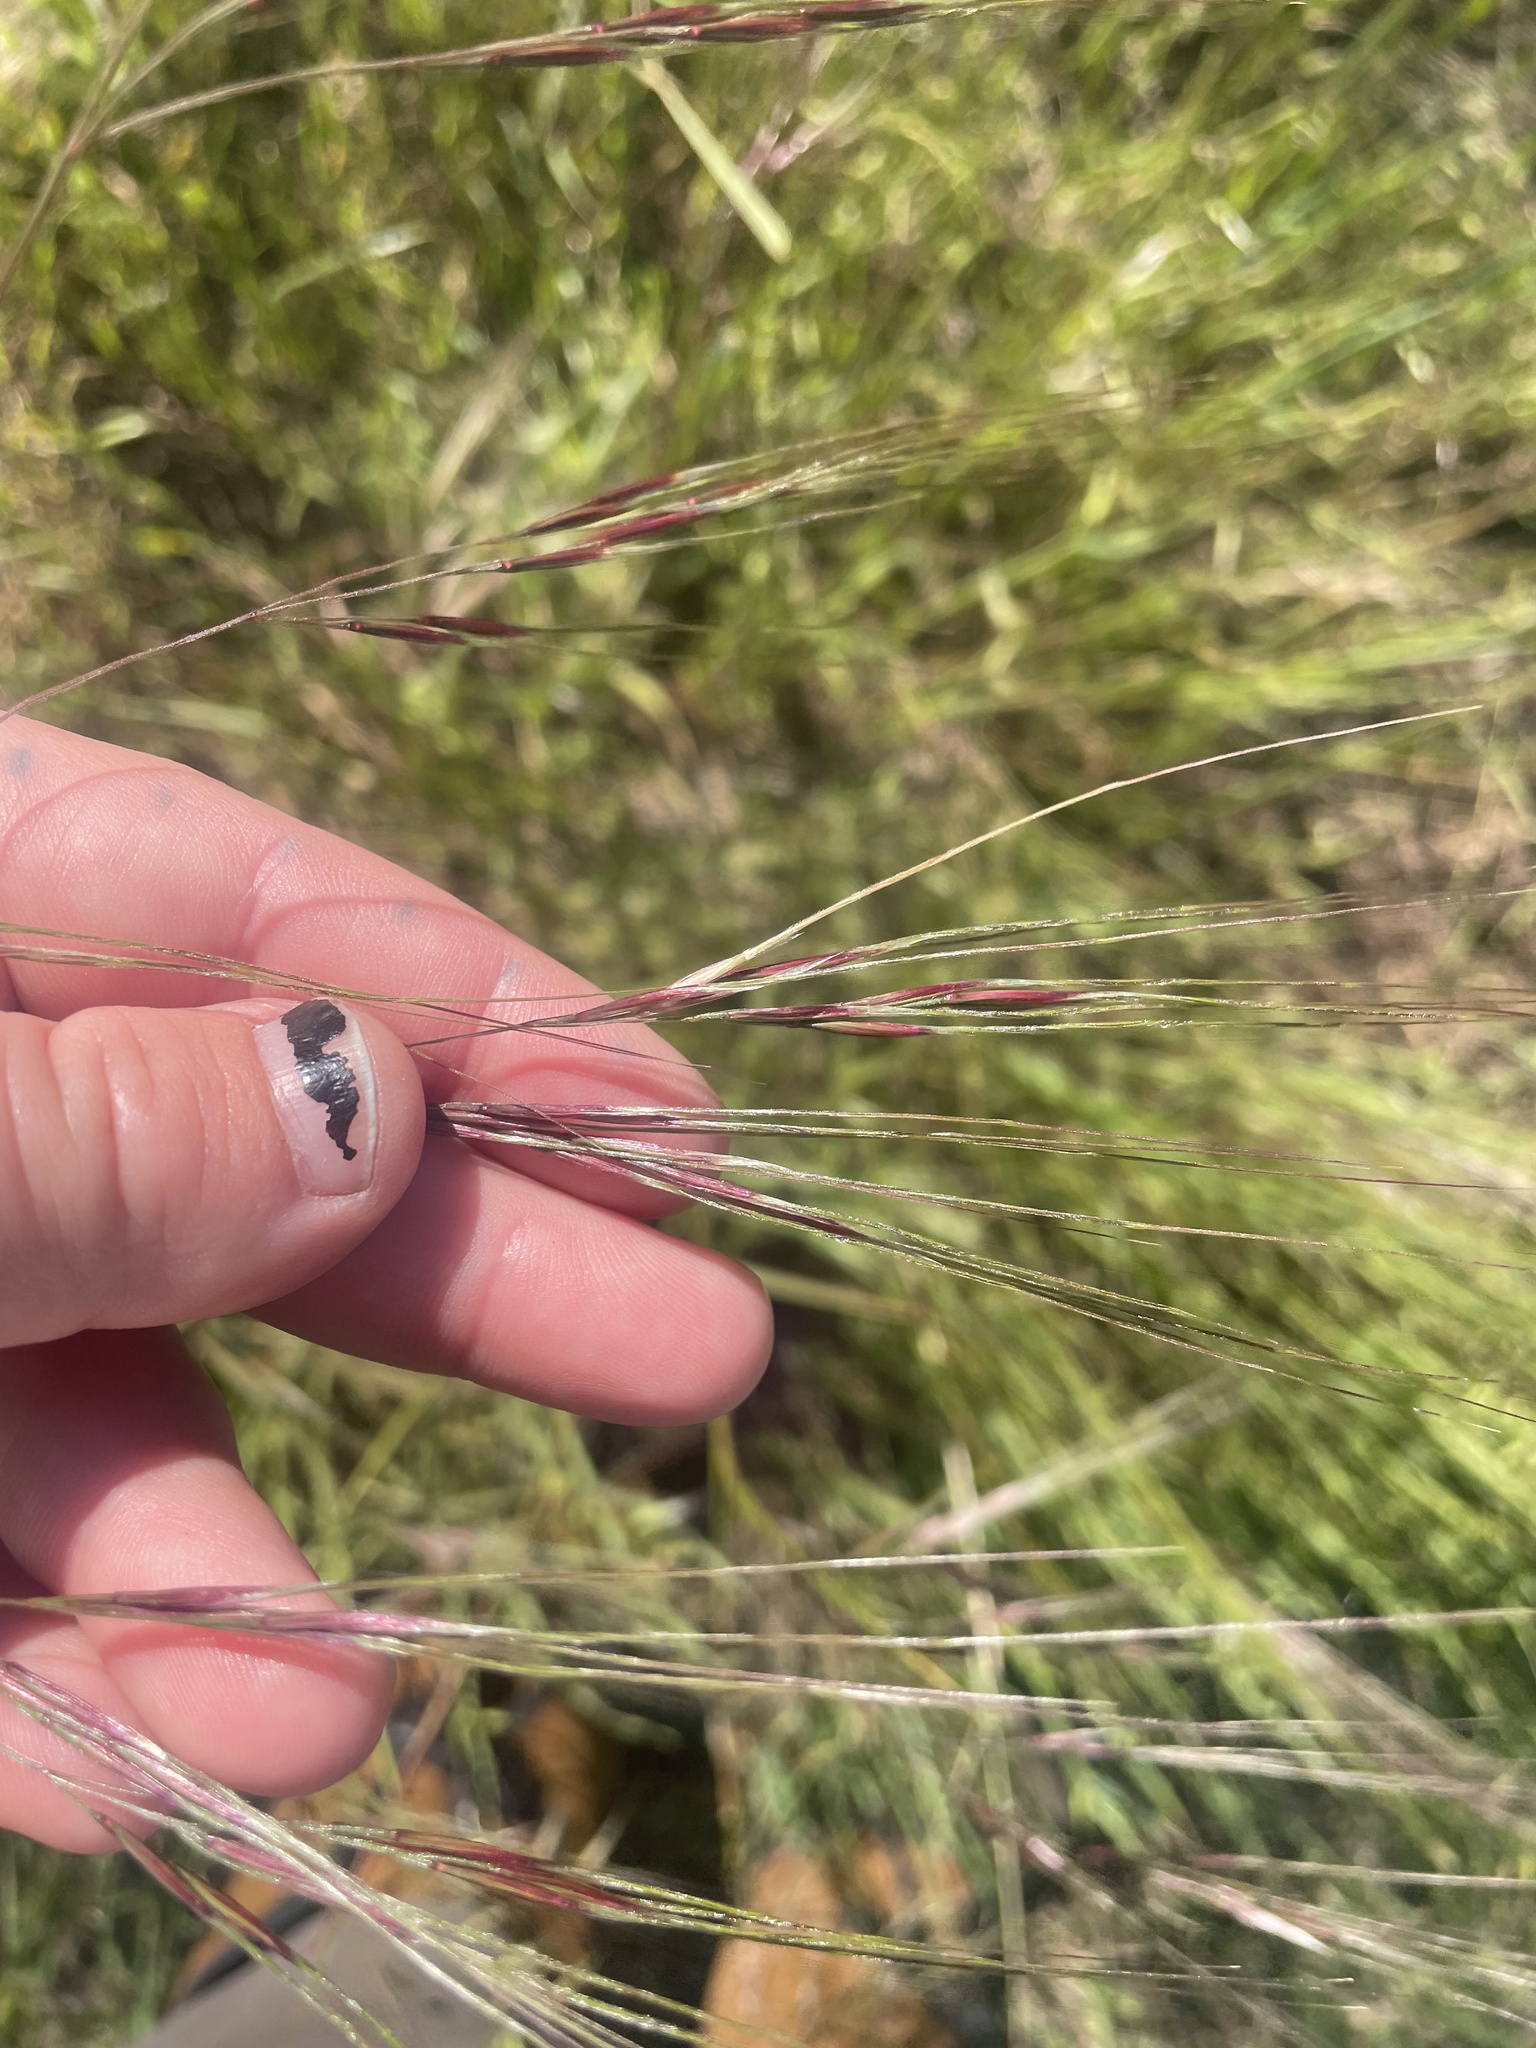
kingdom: Plantae
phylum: Tracheophyta
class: Liliopsida
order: Poales
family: Poaceae
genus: Nassella
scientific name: Nassella pulchra
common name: Purple needlegrass
